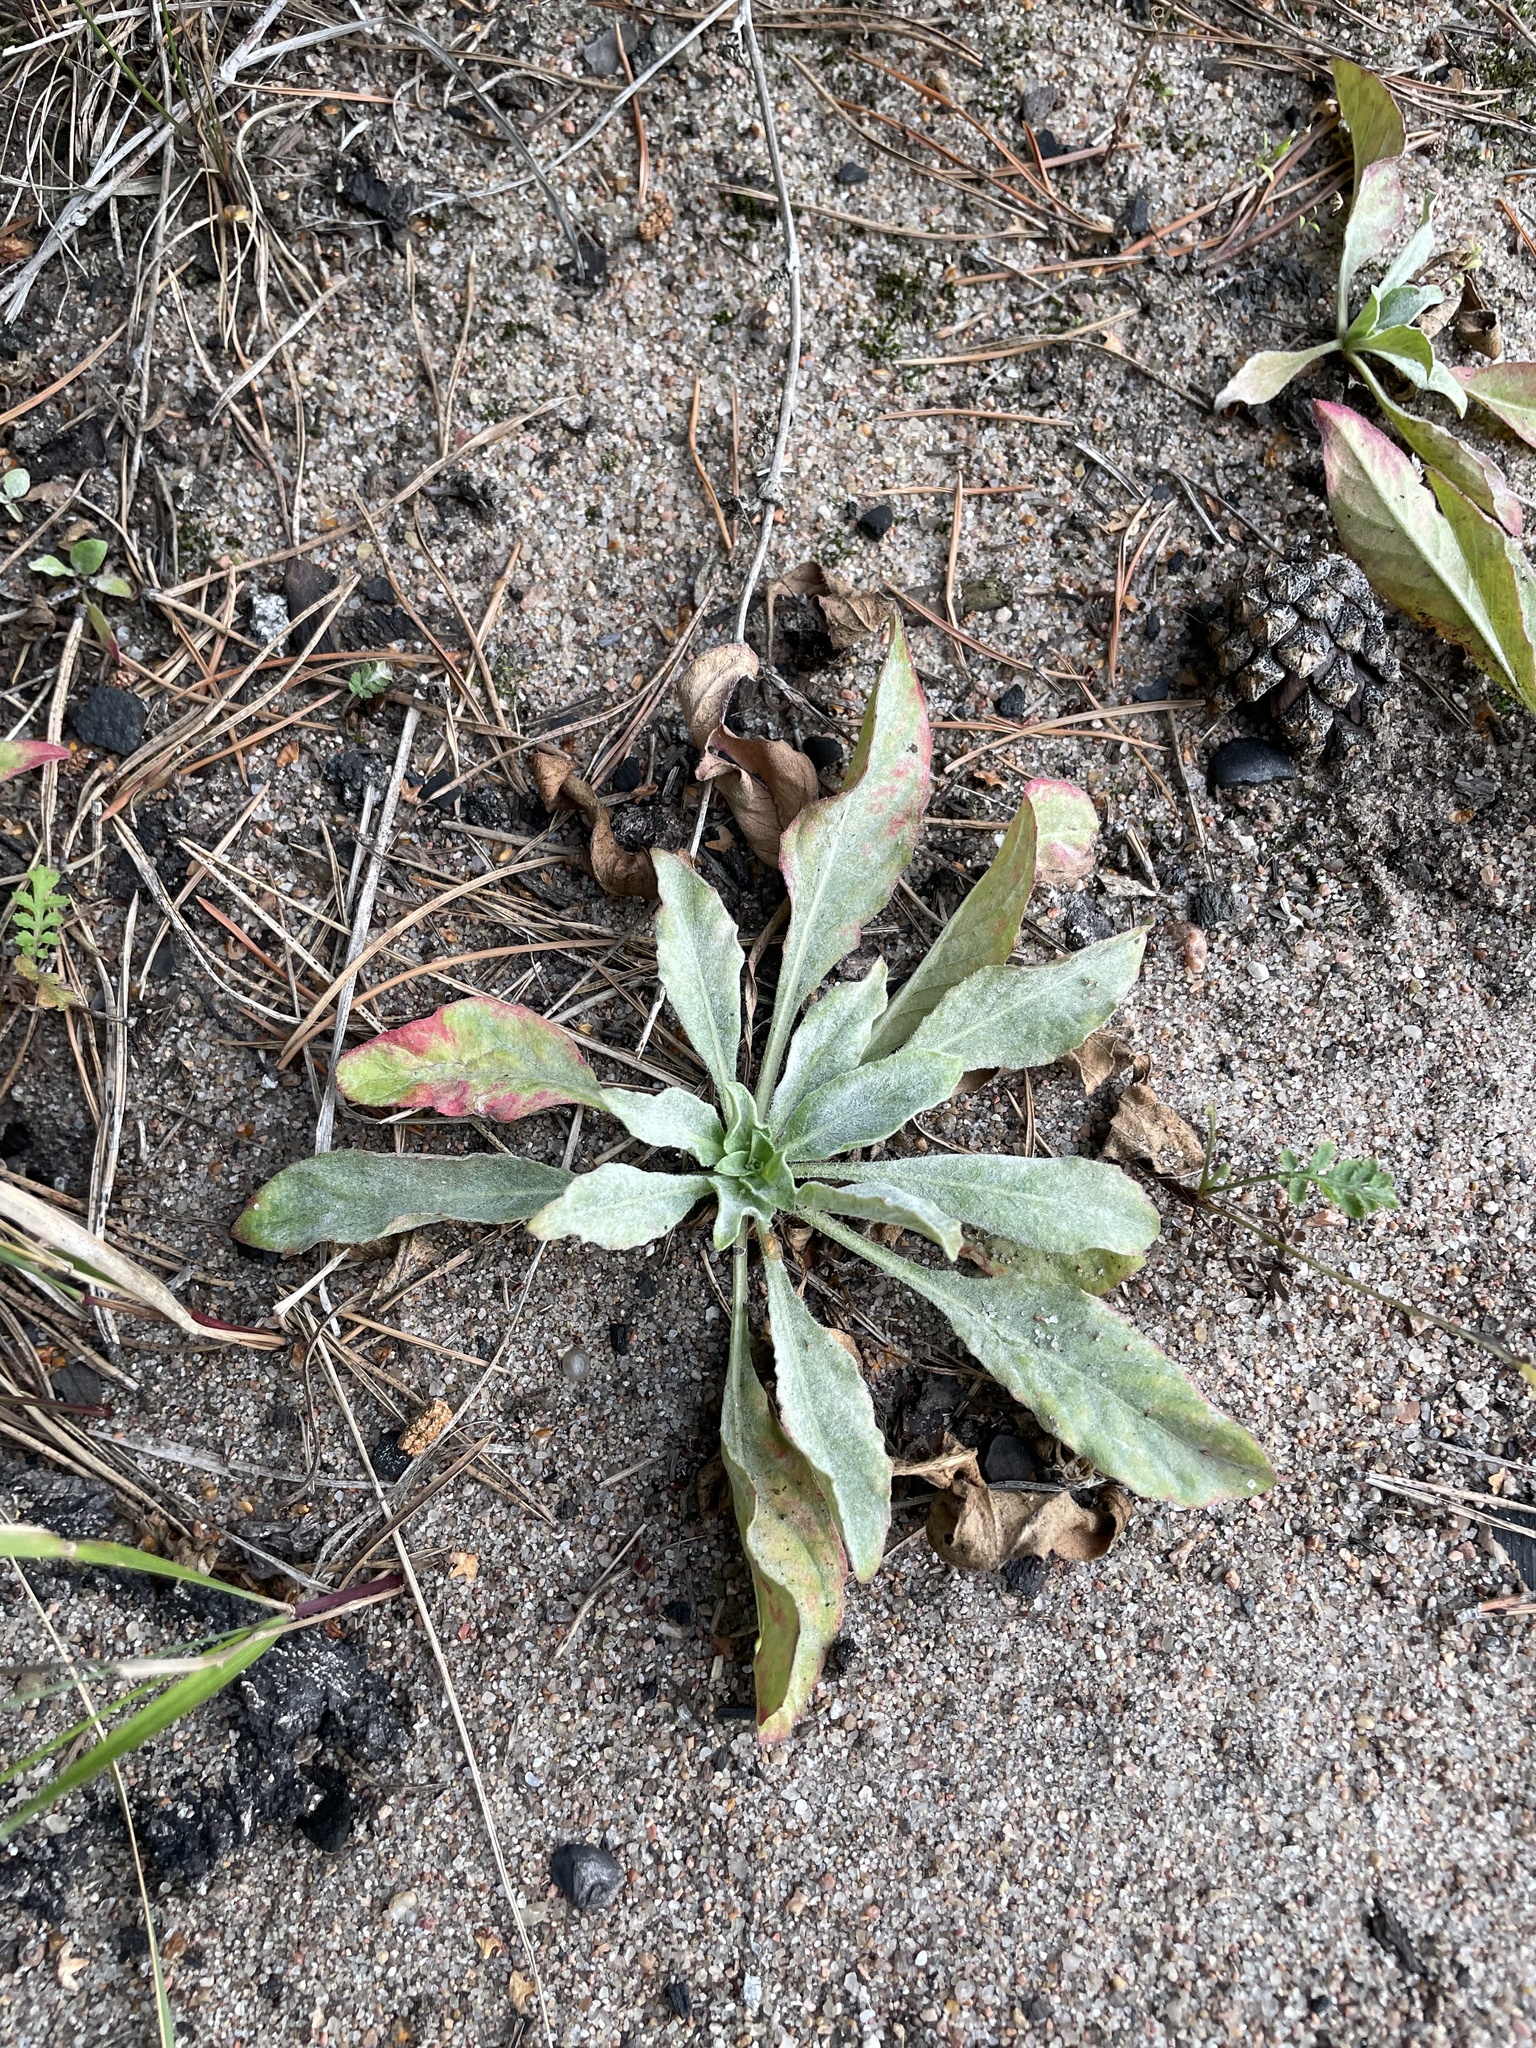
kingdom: Plantae
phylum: Tracheophyta
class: Magnoliopsida
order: Myrtales
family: Onagraceae
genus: Oenothera
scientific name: Oenothera
